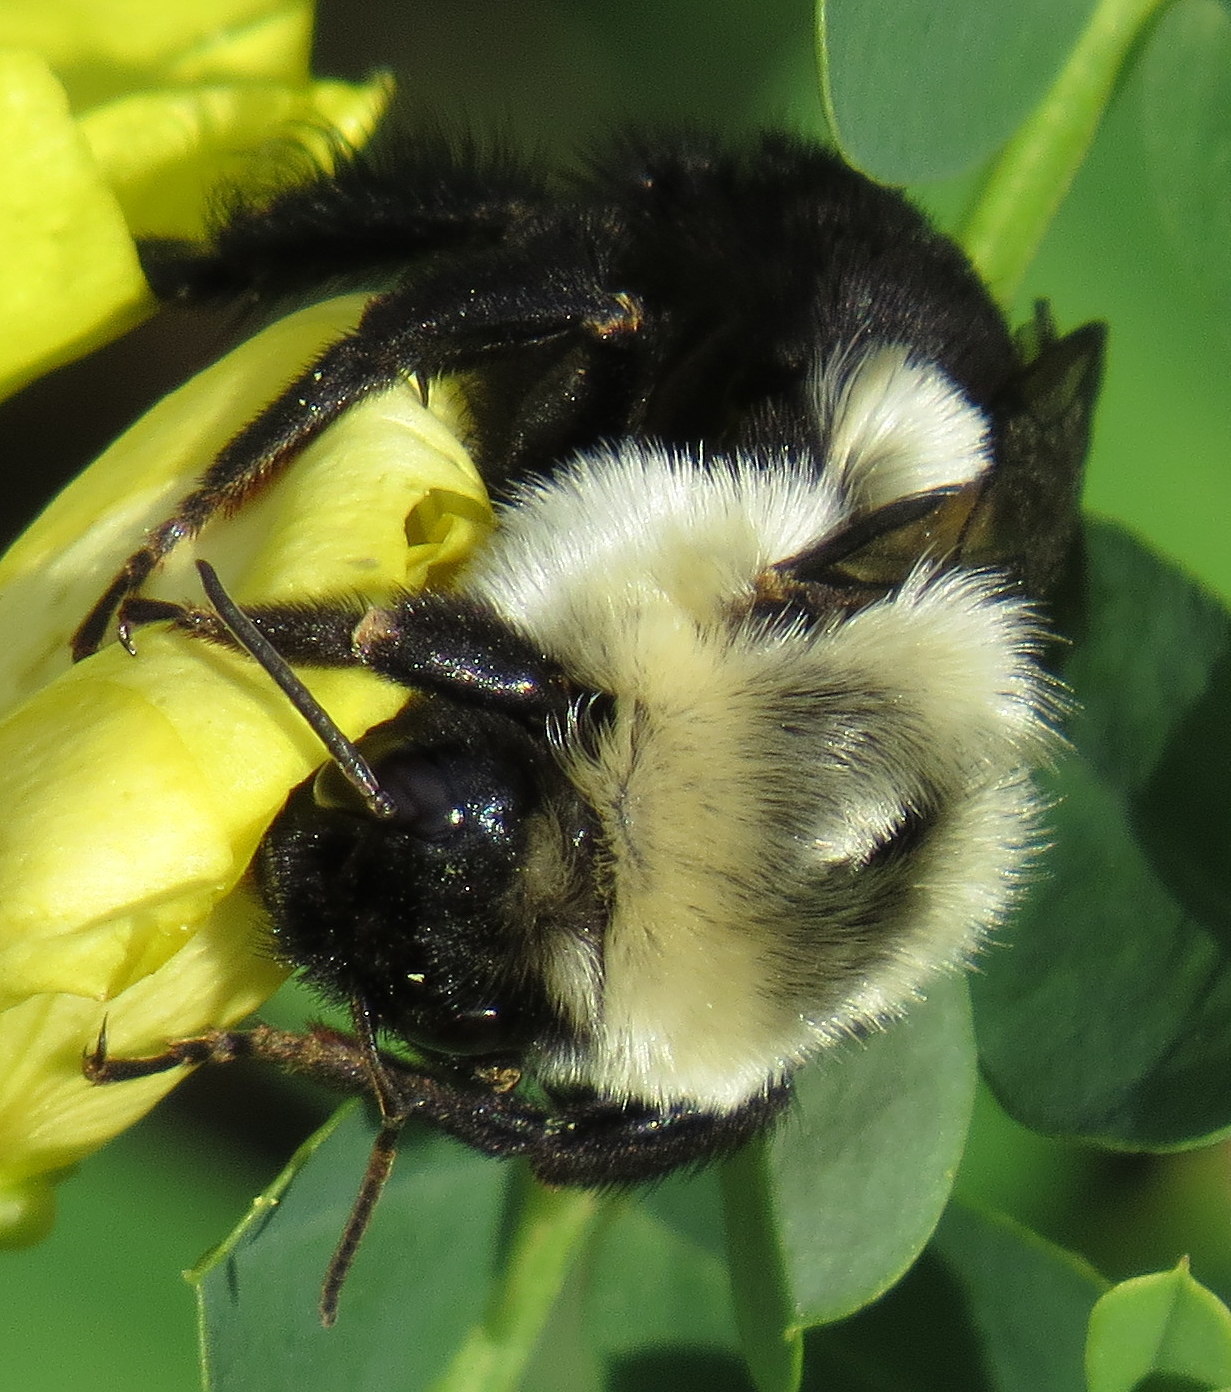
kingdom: Animalia
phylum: Arthropoda
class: Insecta
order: Hymenoptera
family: Apidae
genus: Bombus
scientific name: Bombus impatiens
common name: Common eastern bumble bee
